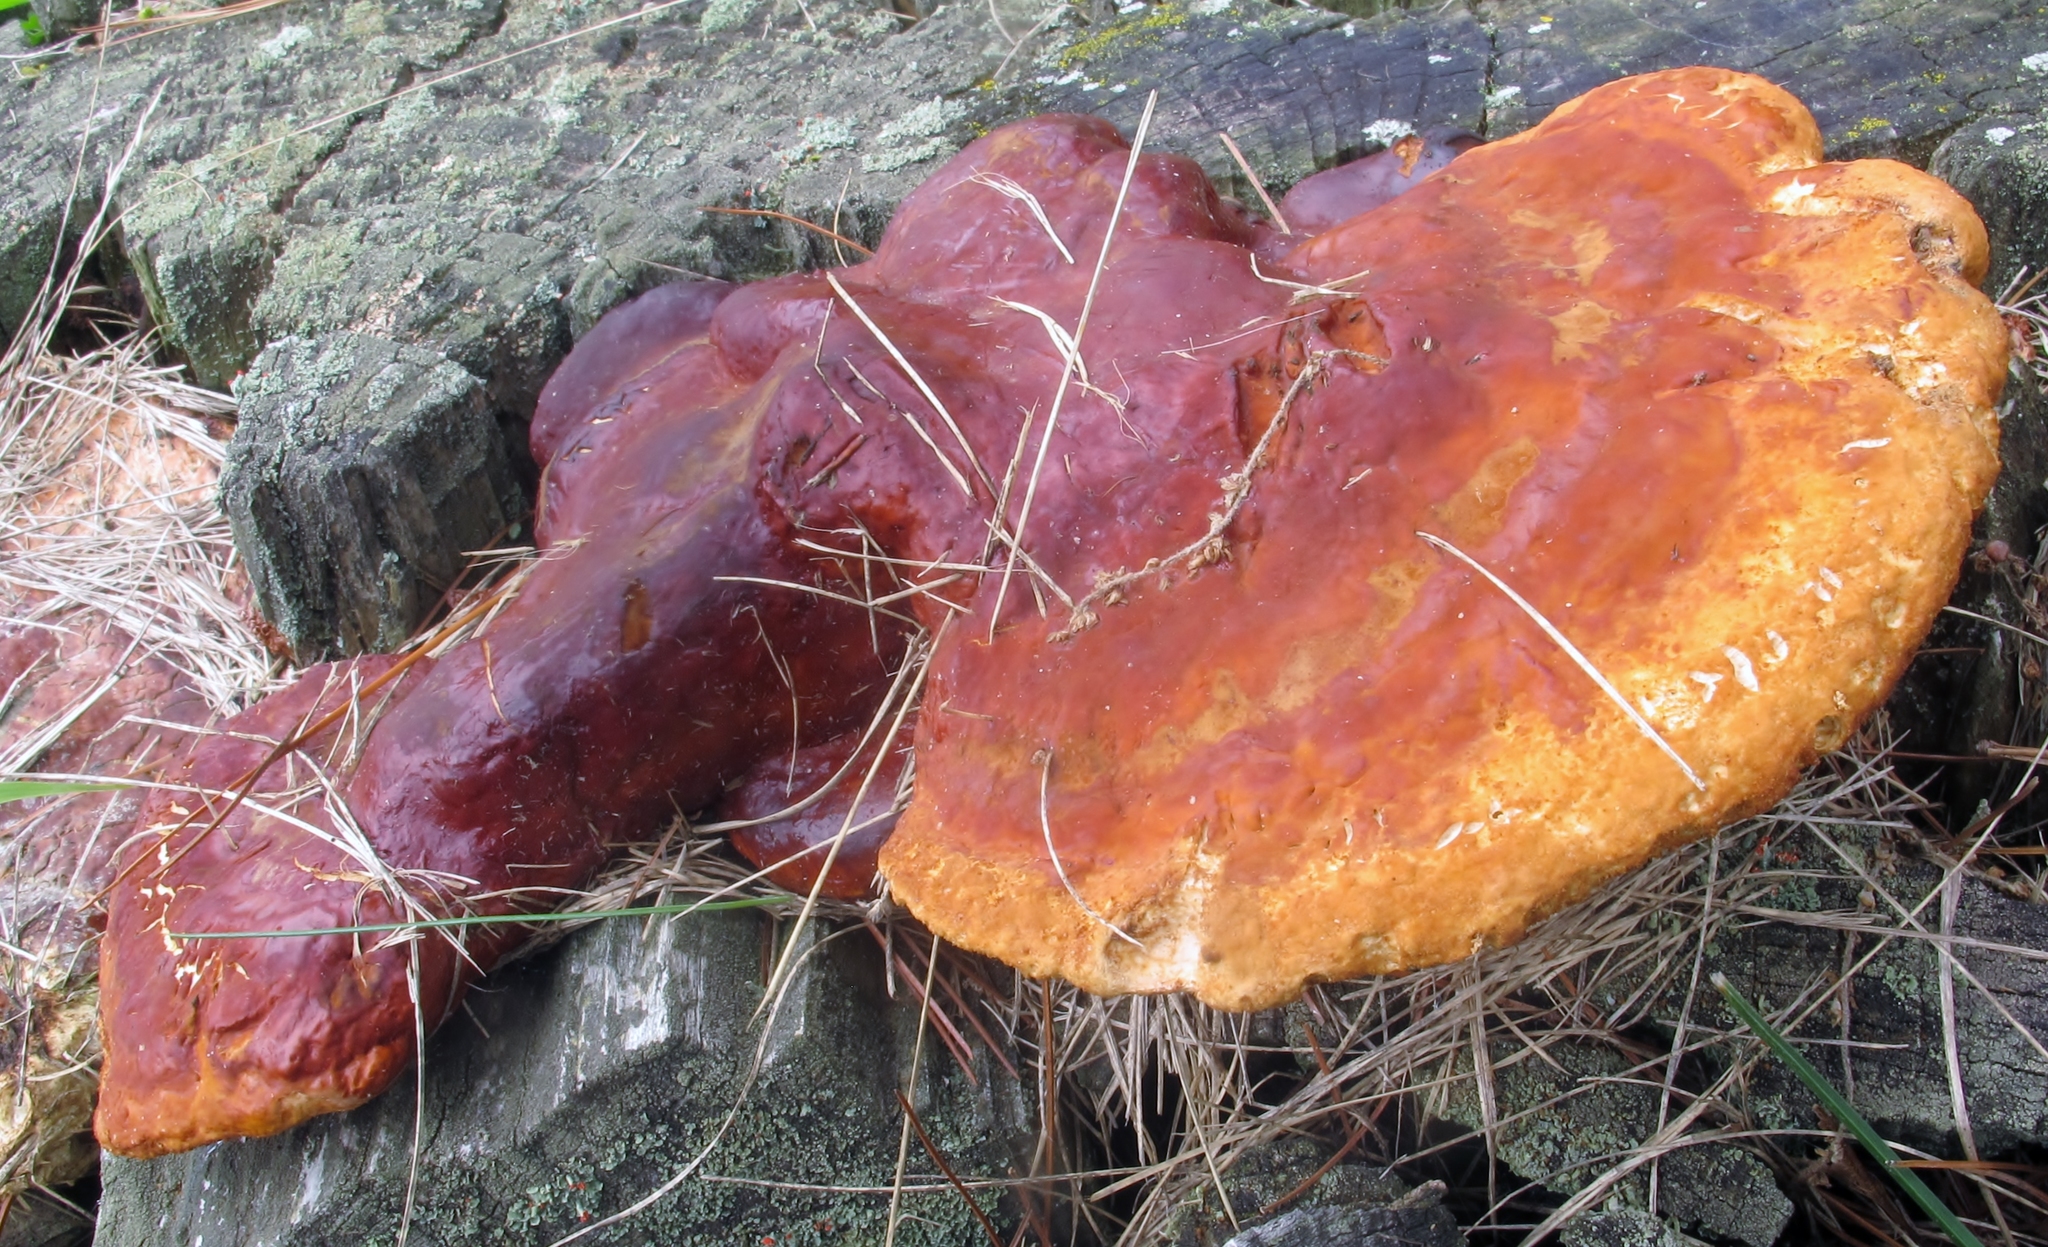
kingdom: Fungi
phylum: Basidiomycota
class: Agaricomycetes
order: Polyporales
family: Polyporaceae
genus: Ganoderma
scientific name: Ganoderma resinaceum
